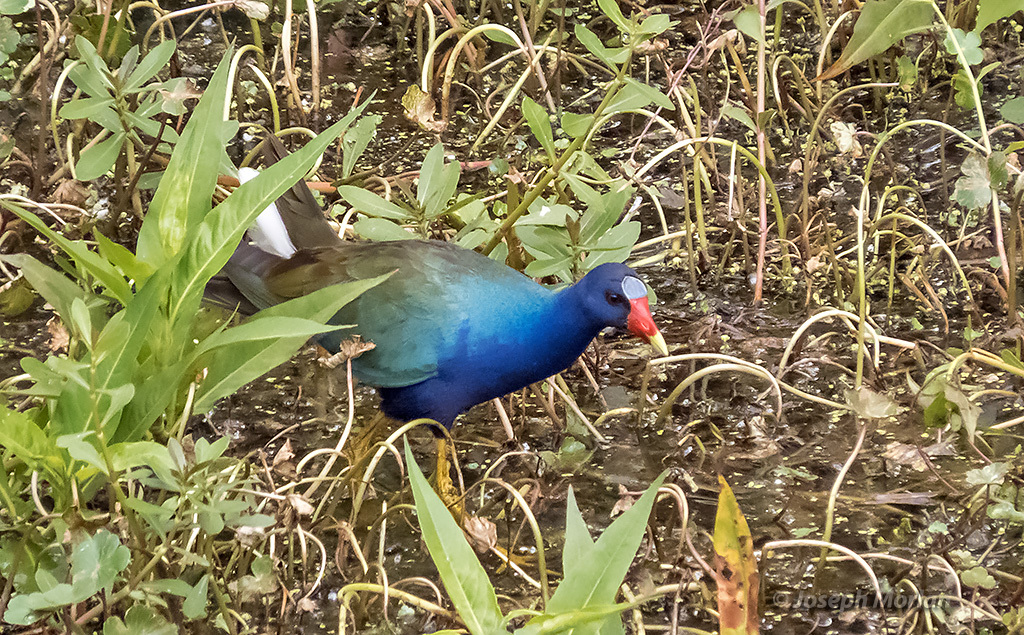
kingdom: Animalia
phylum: Chordata
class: Aves
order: Gruiformes
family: Rallidae
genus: Porphyrio
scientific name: Porphyrio martinica
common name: Purple gallinule
